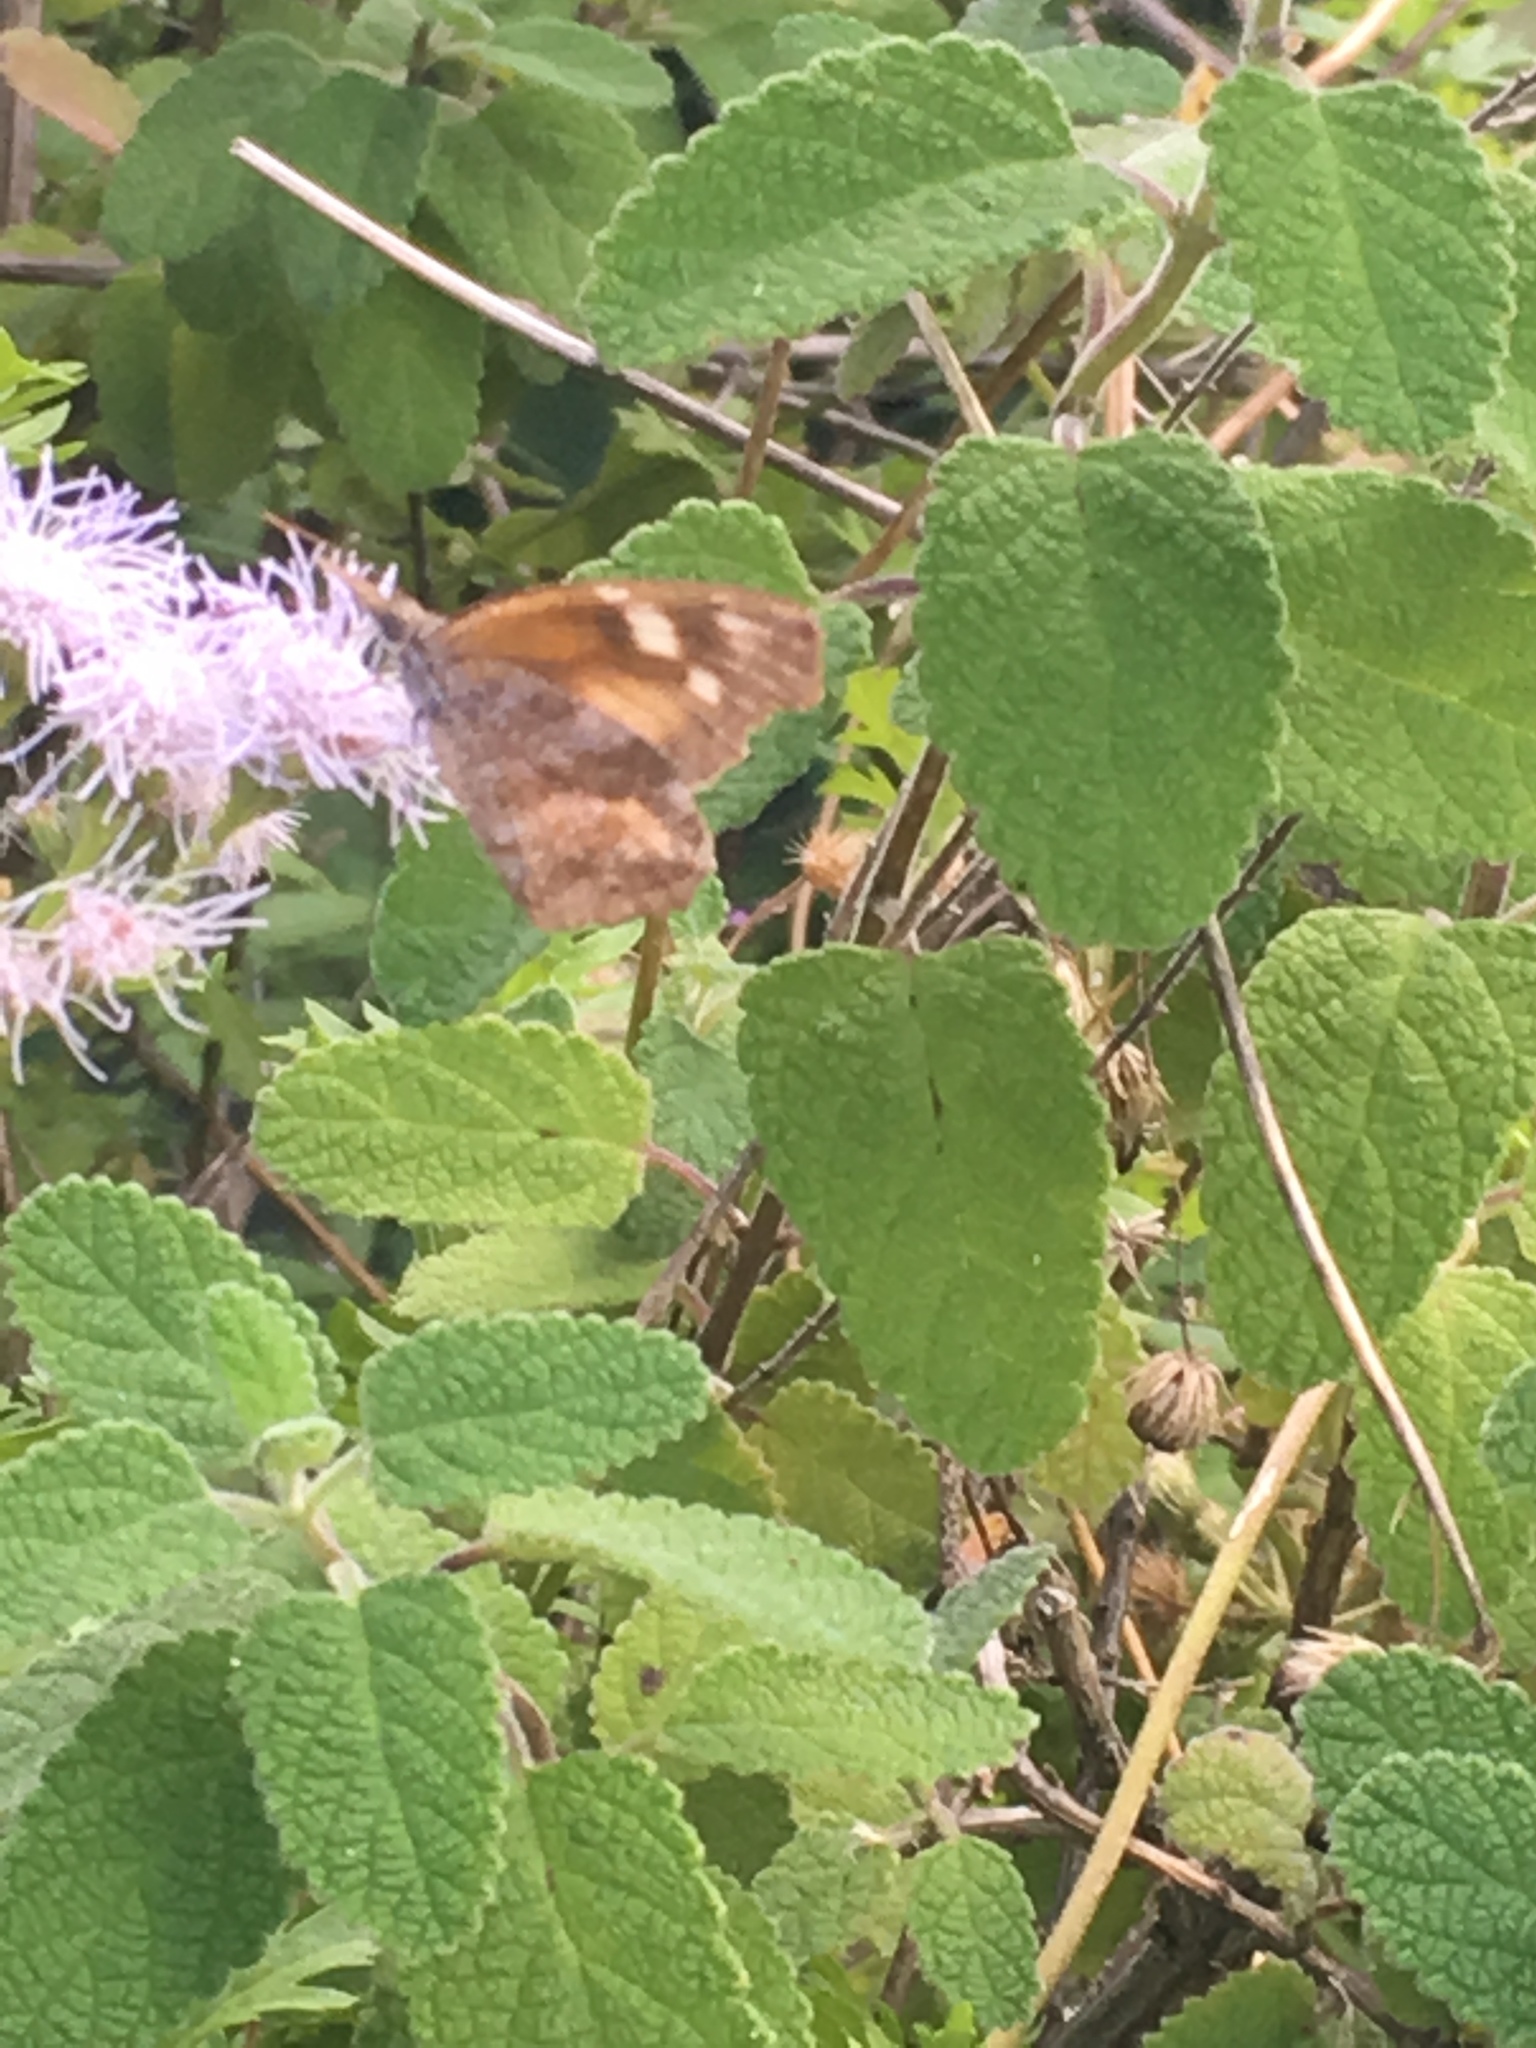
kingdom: Animalia
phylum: Arthropoda
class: Insecta
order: Lepidoptera
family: Nymphalidae
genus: Libytheana
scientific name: Libytheana carinenta
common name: American snout
